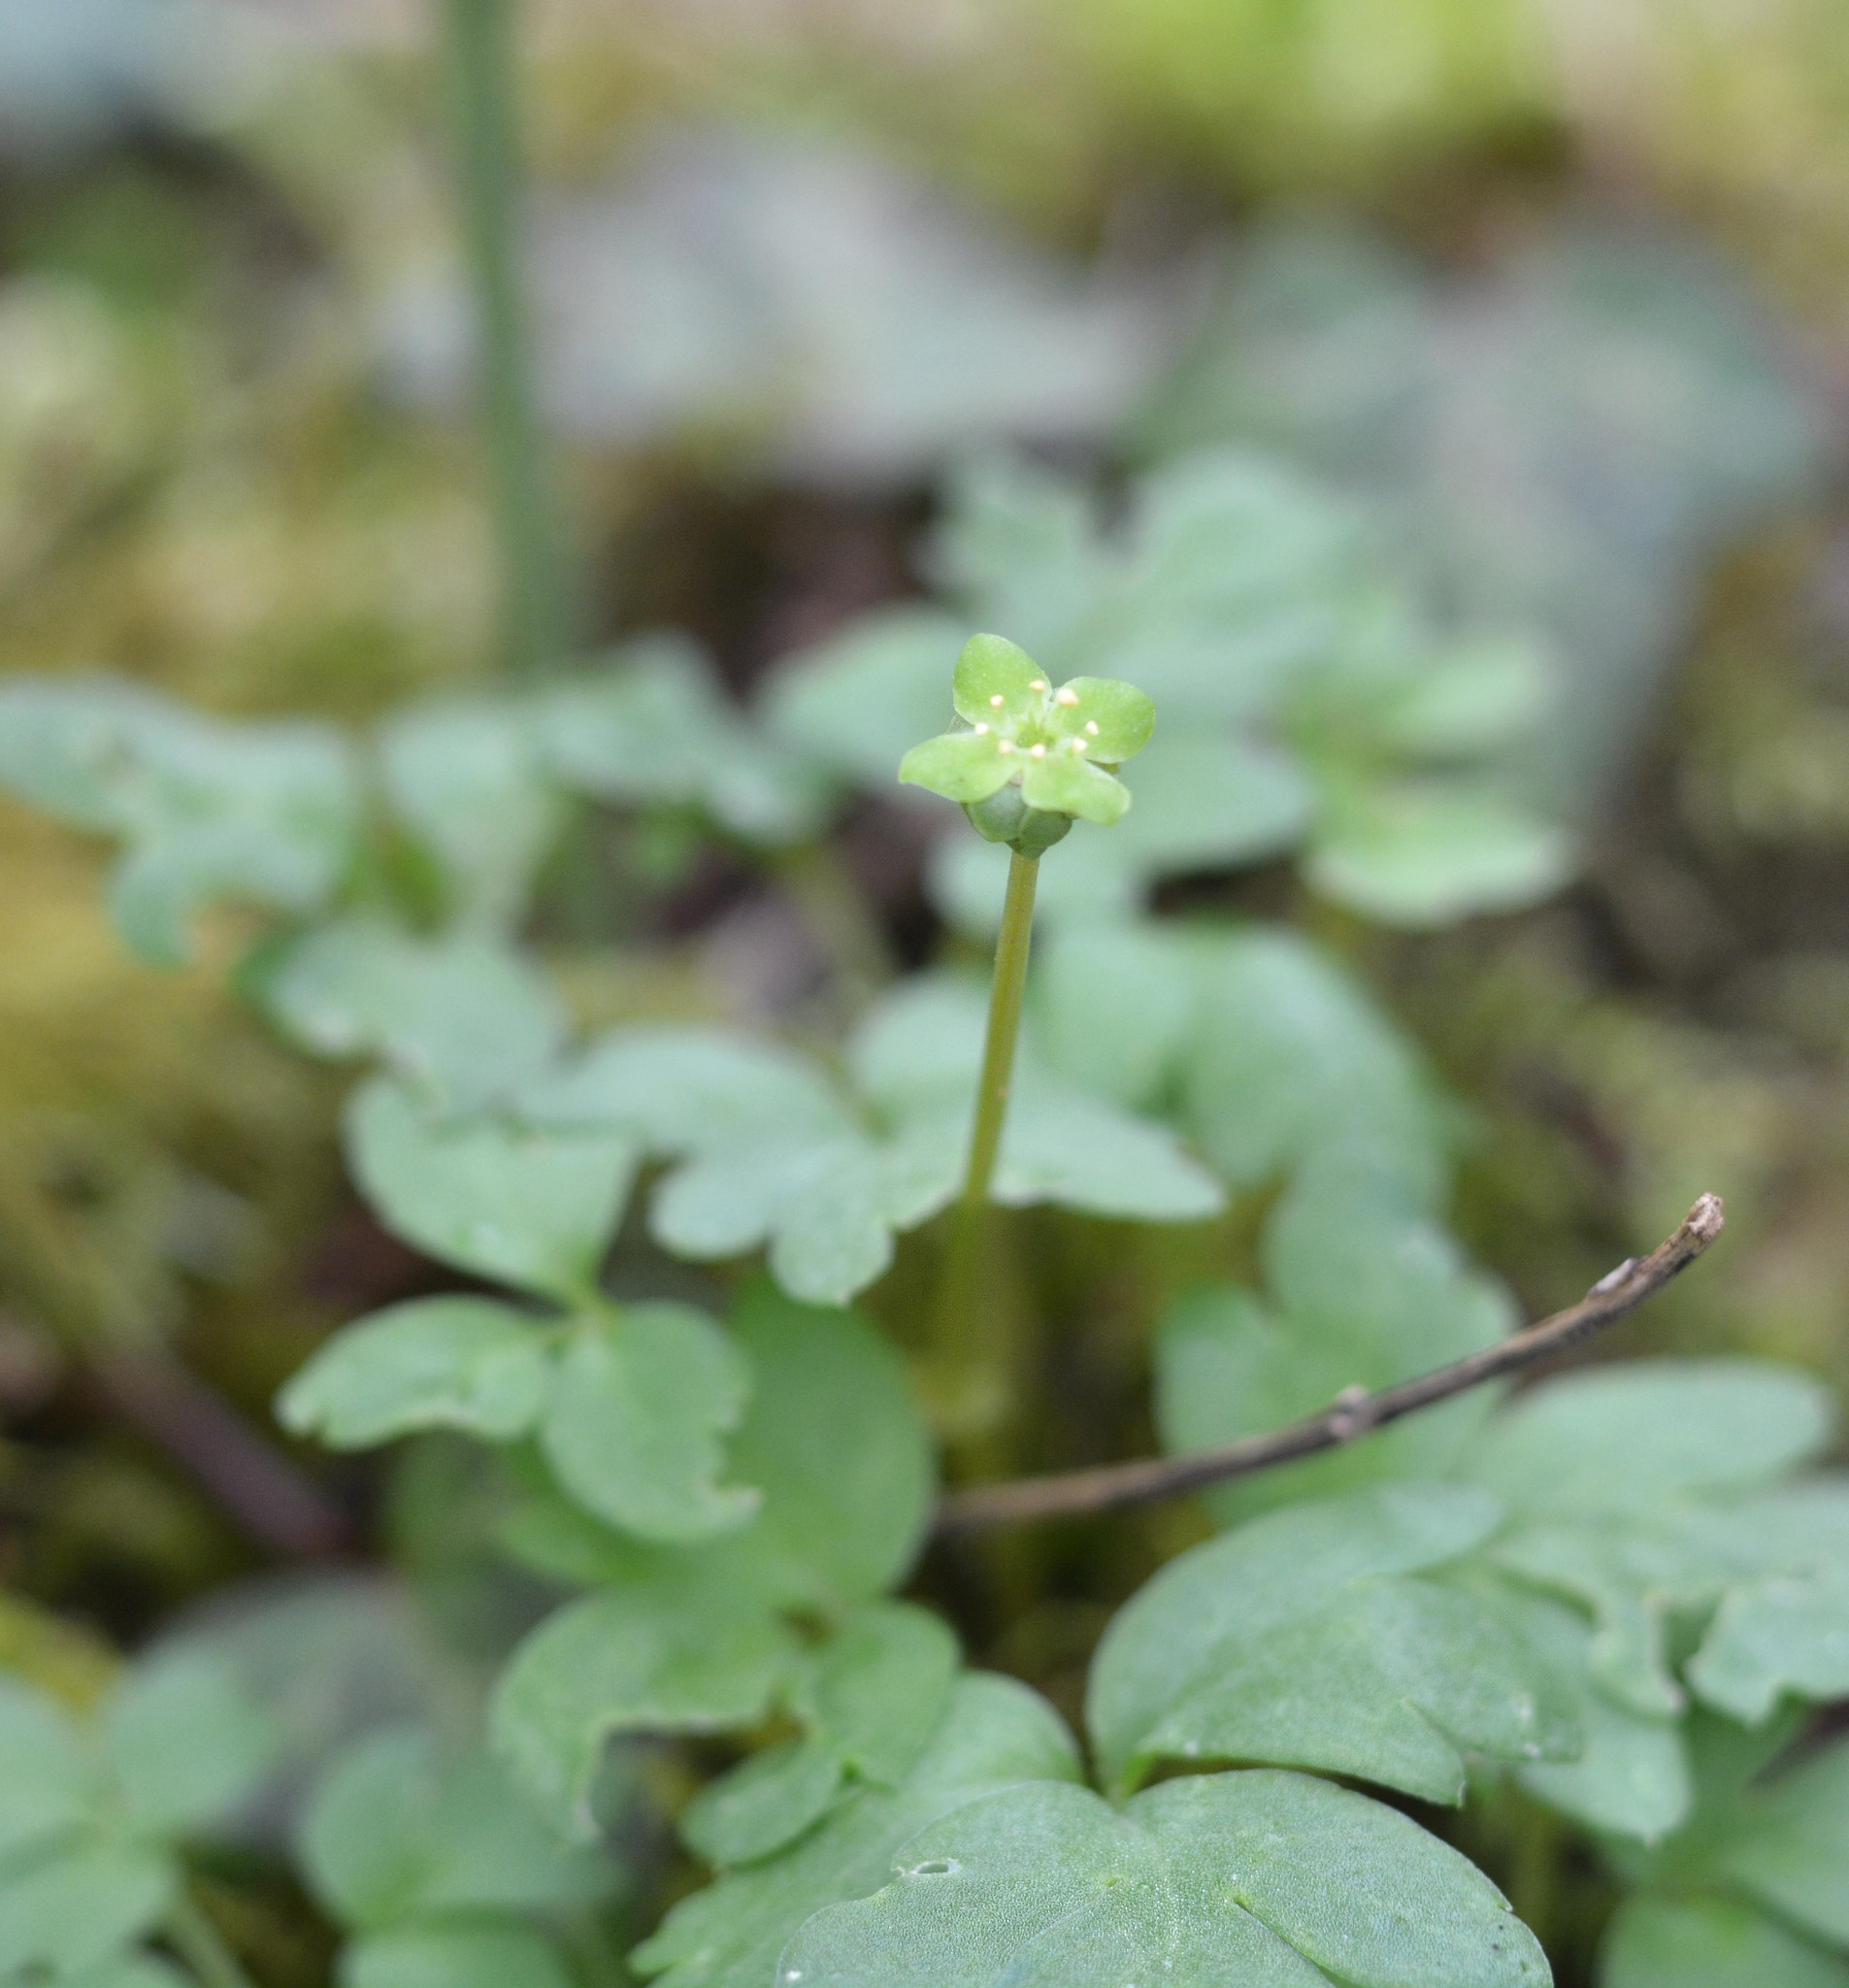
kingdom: Plantae
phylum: Tracheophyta
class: Magnoliopsida
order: Dipsacales
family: Viburnaceae
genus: Adoxa
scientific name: Adoxa moschatellina
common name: Moschatel
